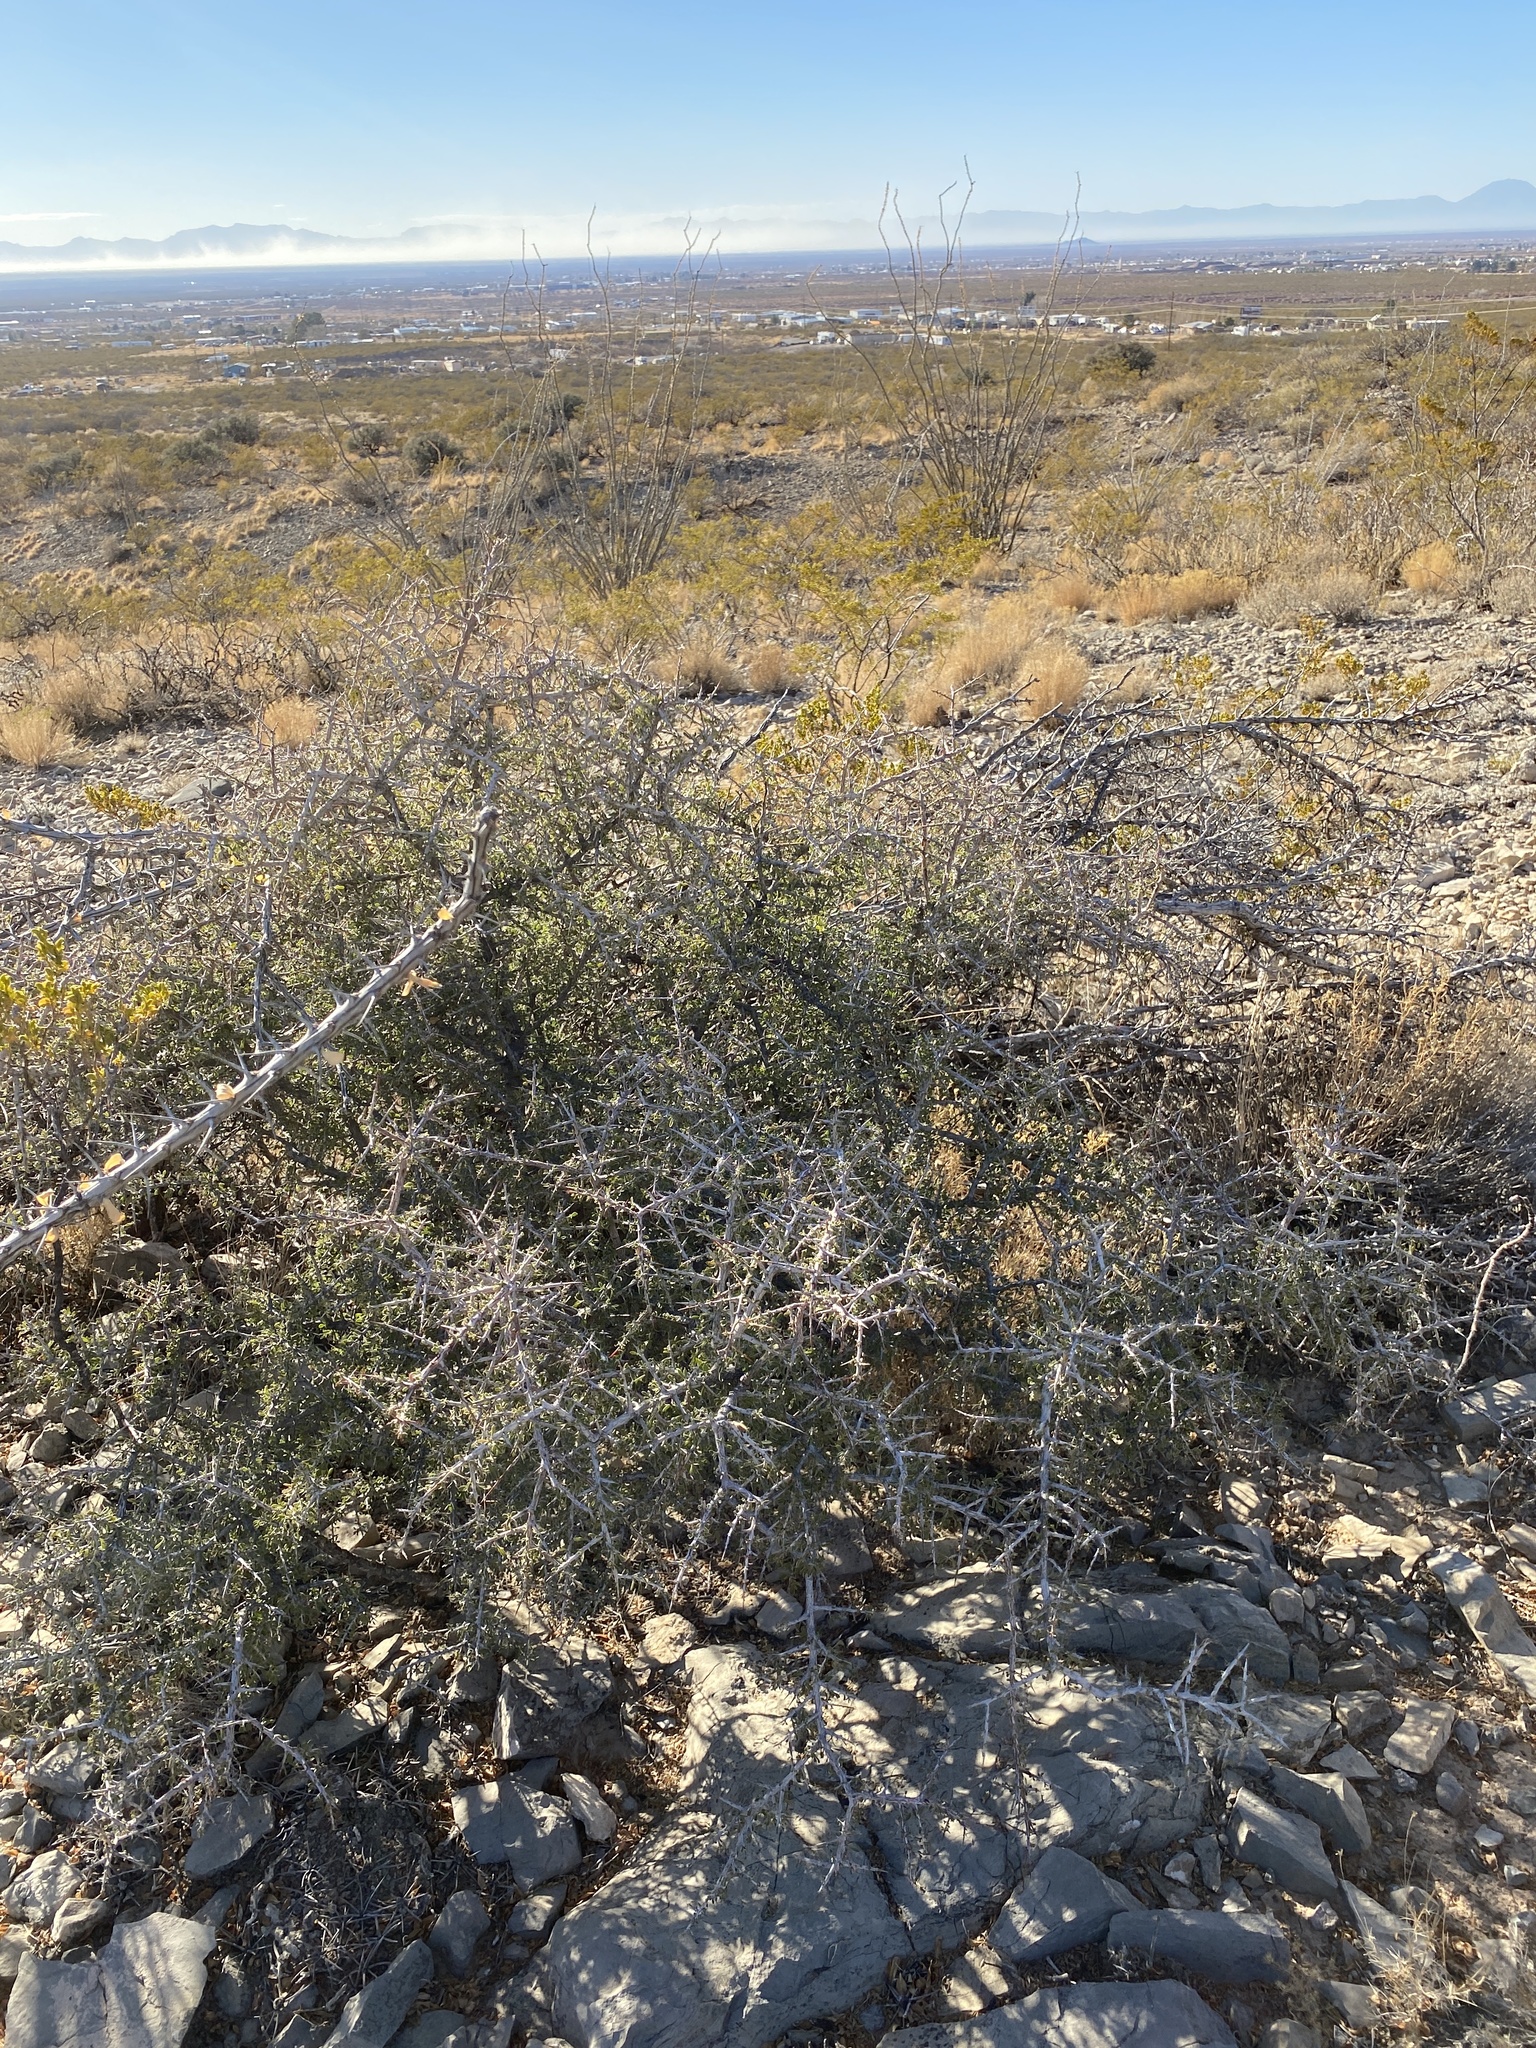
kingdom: Plantae
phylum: Tracheophyta
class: Magnoliopsida
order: Rosales
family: Rhamnaceae
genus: Condalia
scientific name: Condalia warnockii
